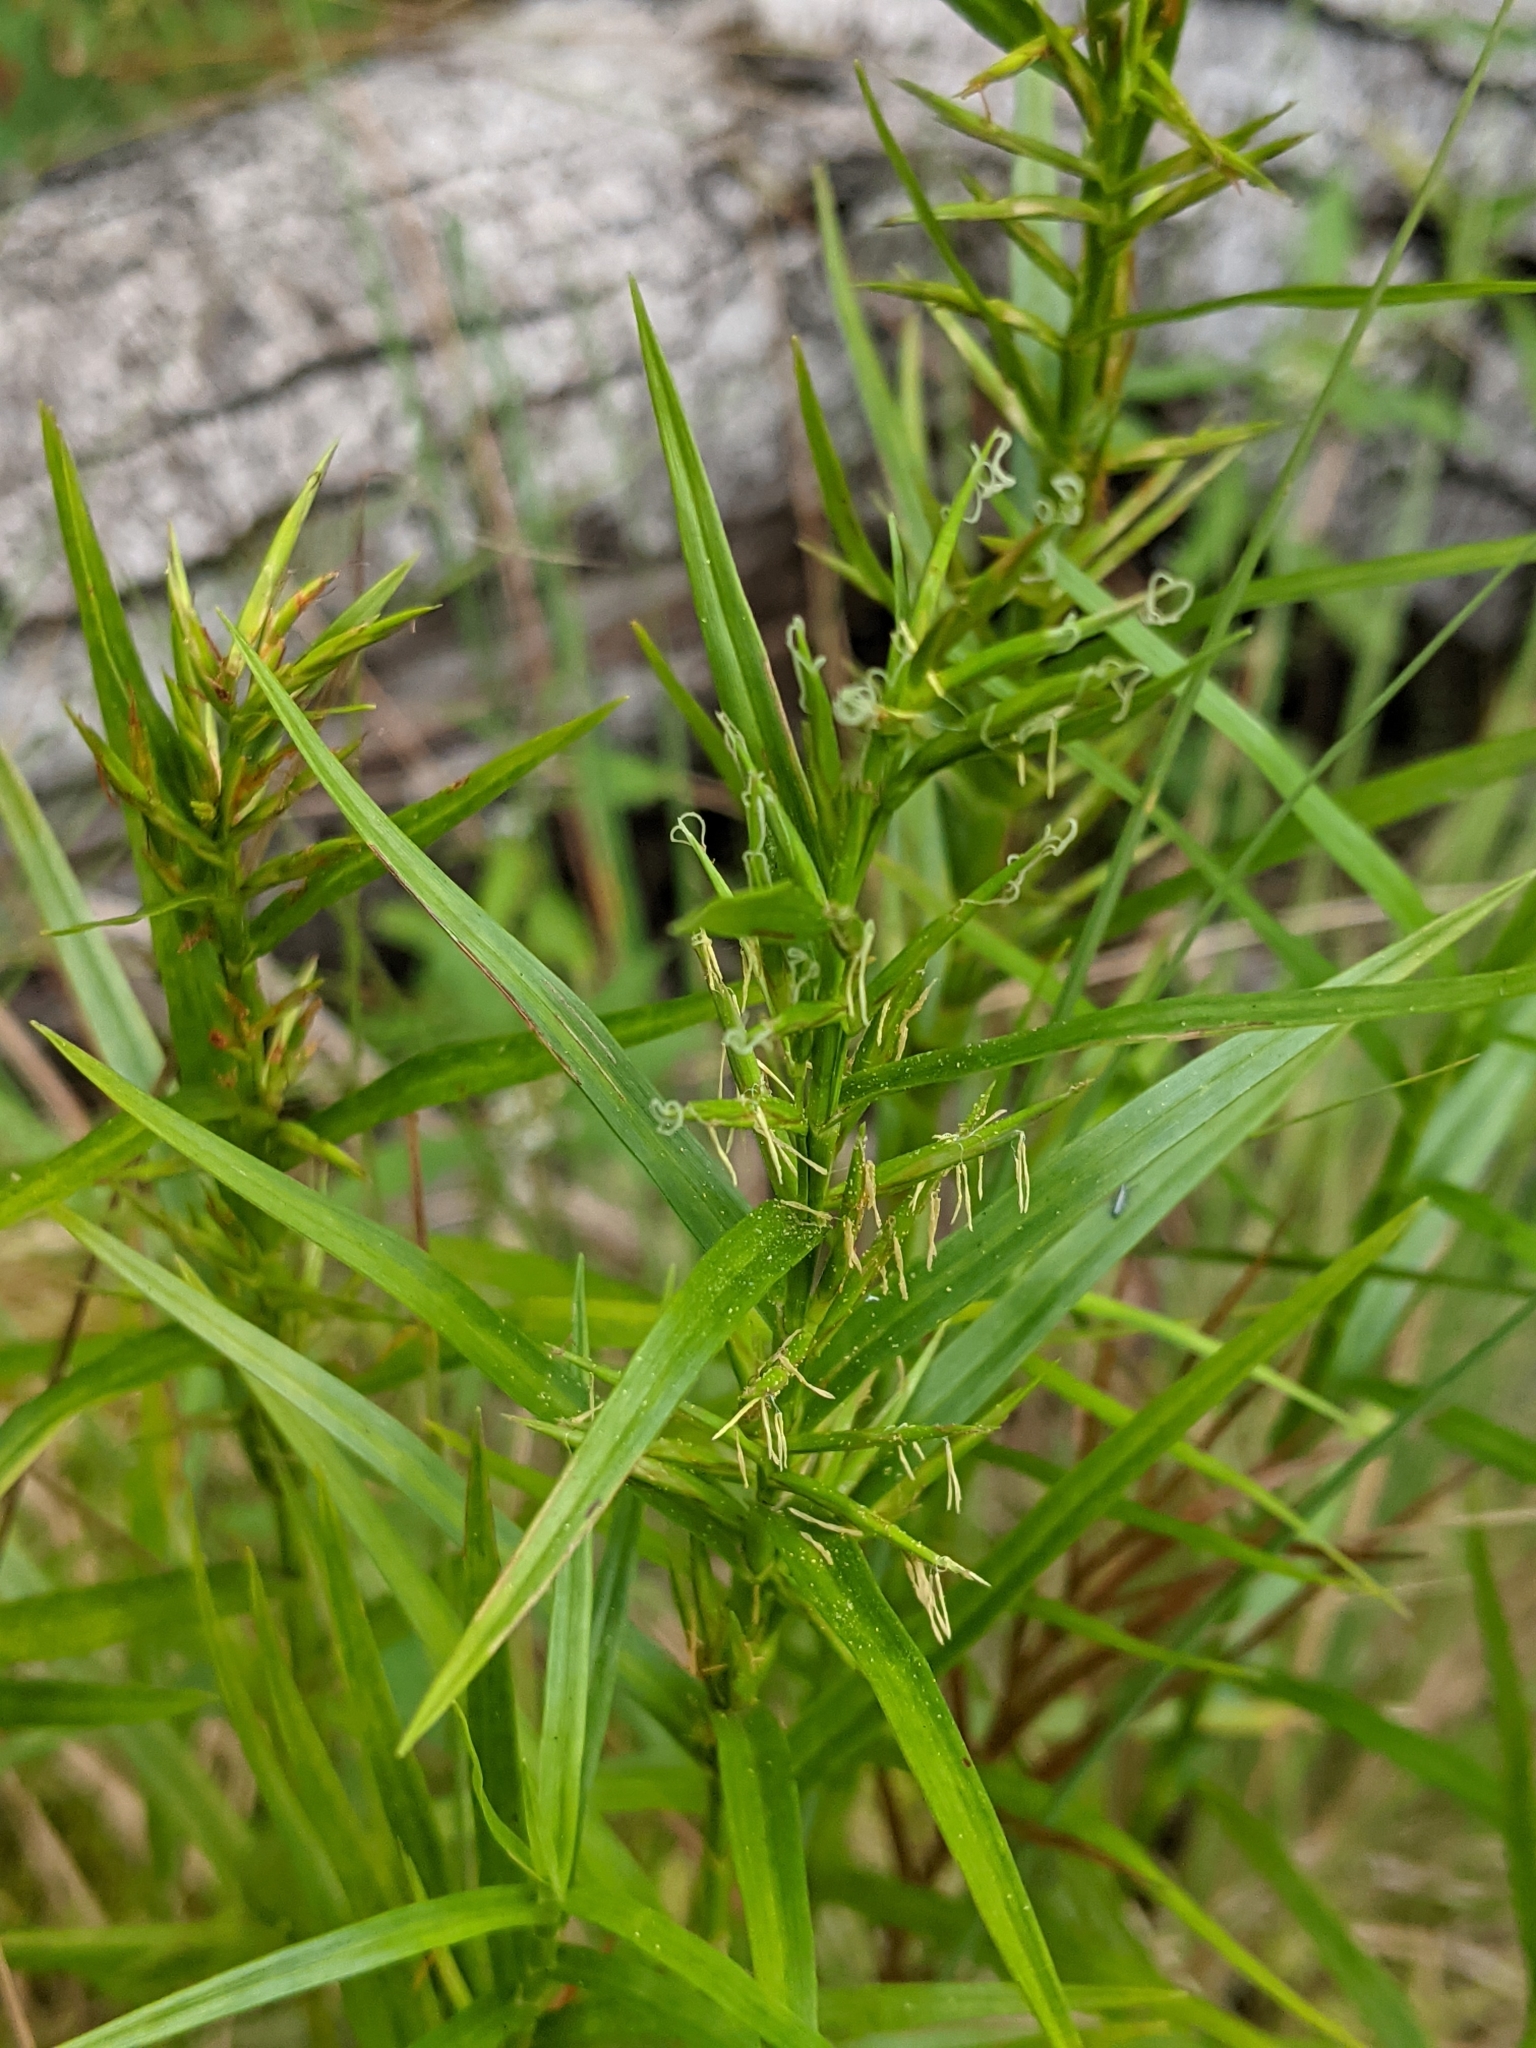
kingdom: Plantae
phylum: Tracheophyta
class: Liliopsida
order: Poales
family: Cyperaceae
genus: Dulichium
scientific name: Dulichium arundinaceum
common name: Three-way sedge
